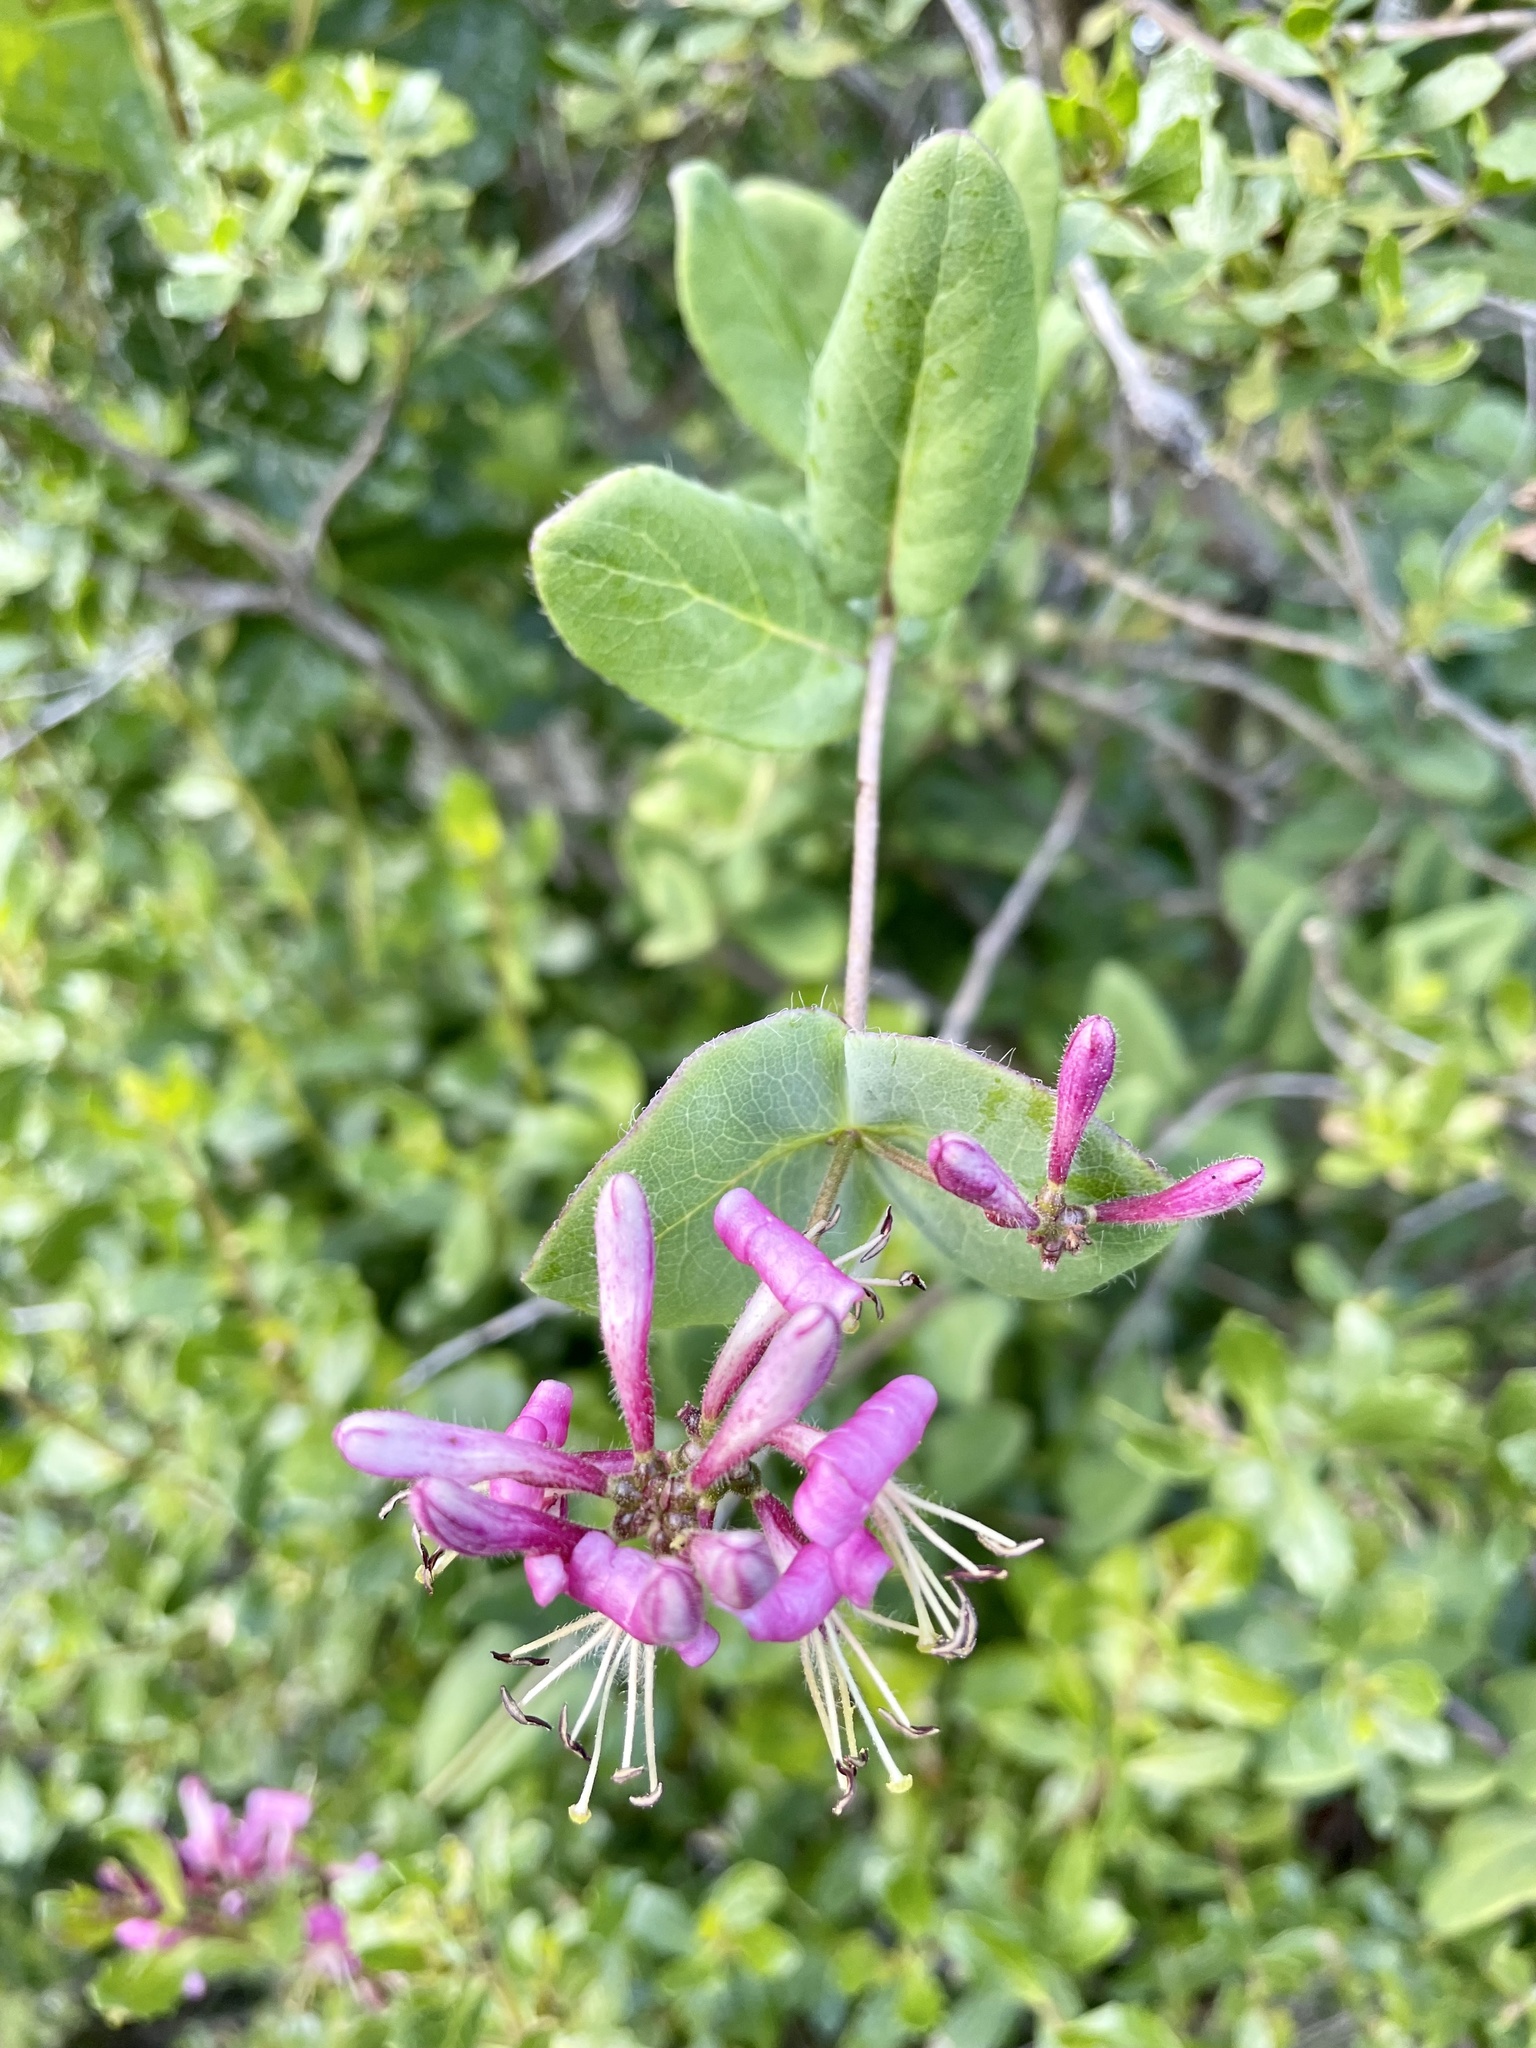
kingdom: Plantae
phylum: Tracheophyta
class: Magnoliopsida
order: Dipsacales
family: Caprifoliaceae
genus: Lonicera
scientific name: Lonicera hispidula
